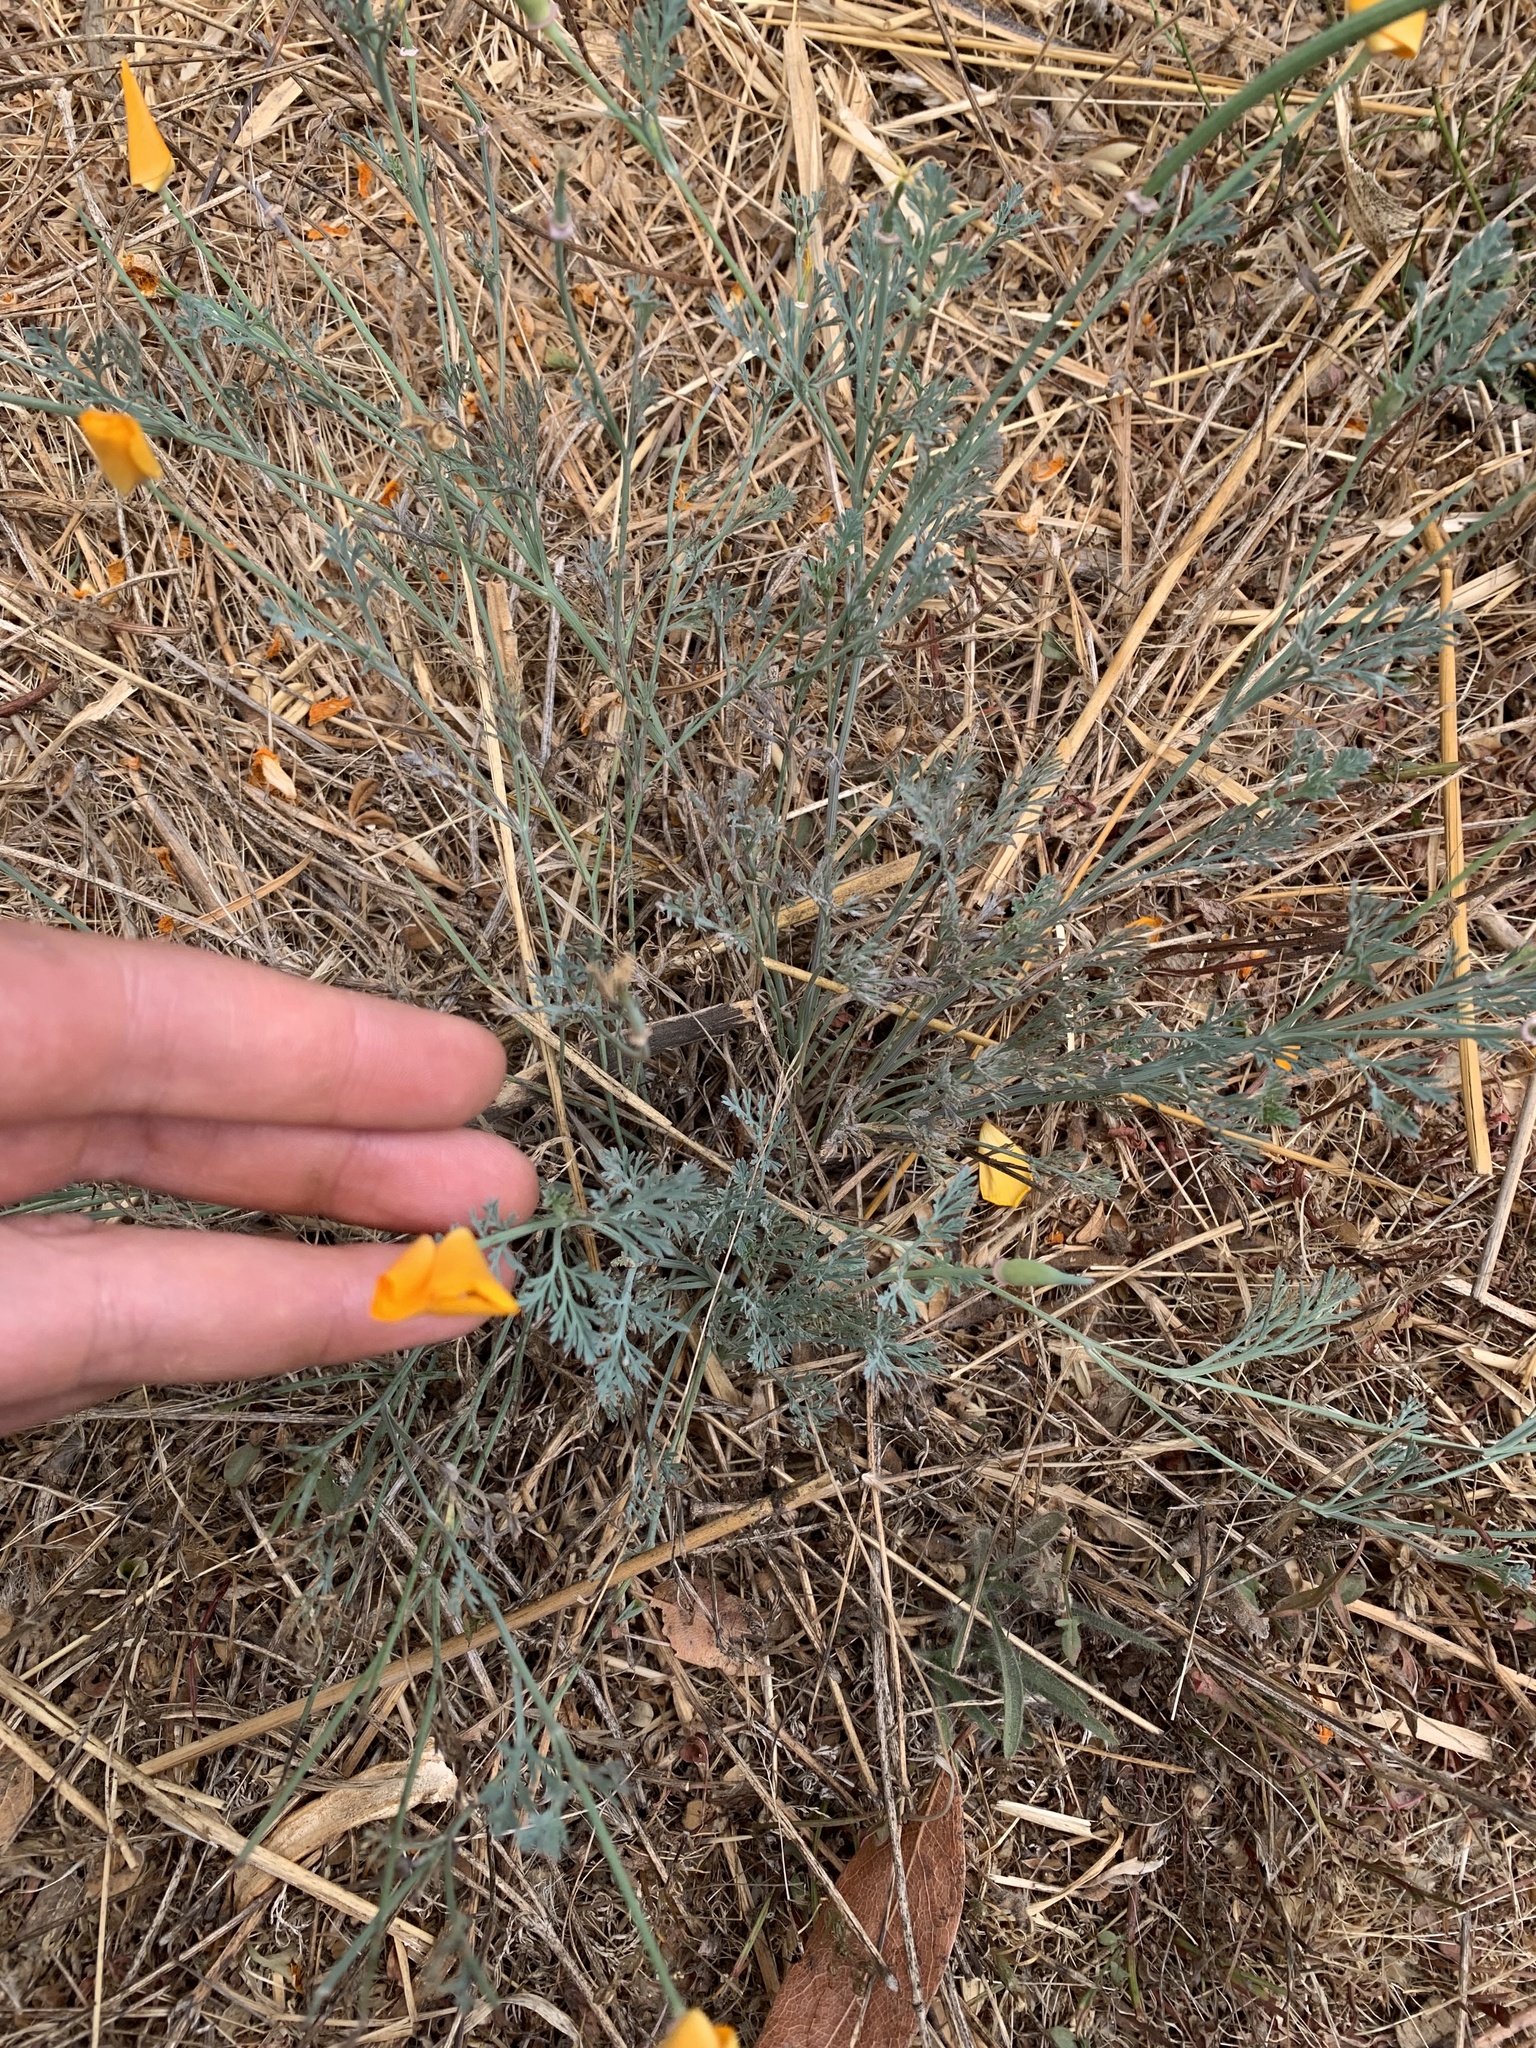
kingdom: Plantae
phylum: Tracheophyta
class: Magnoliopsida
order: Ranunculales
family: Papaveraceae
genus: Eschscholzia
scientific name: Eschscholzia californica
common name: California poppy
